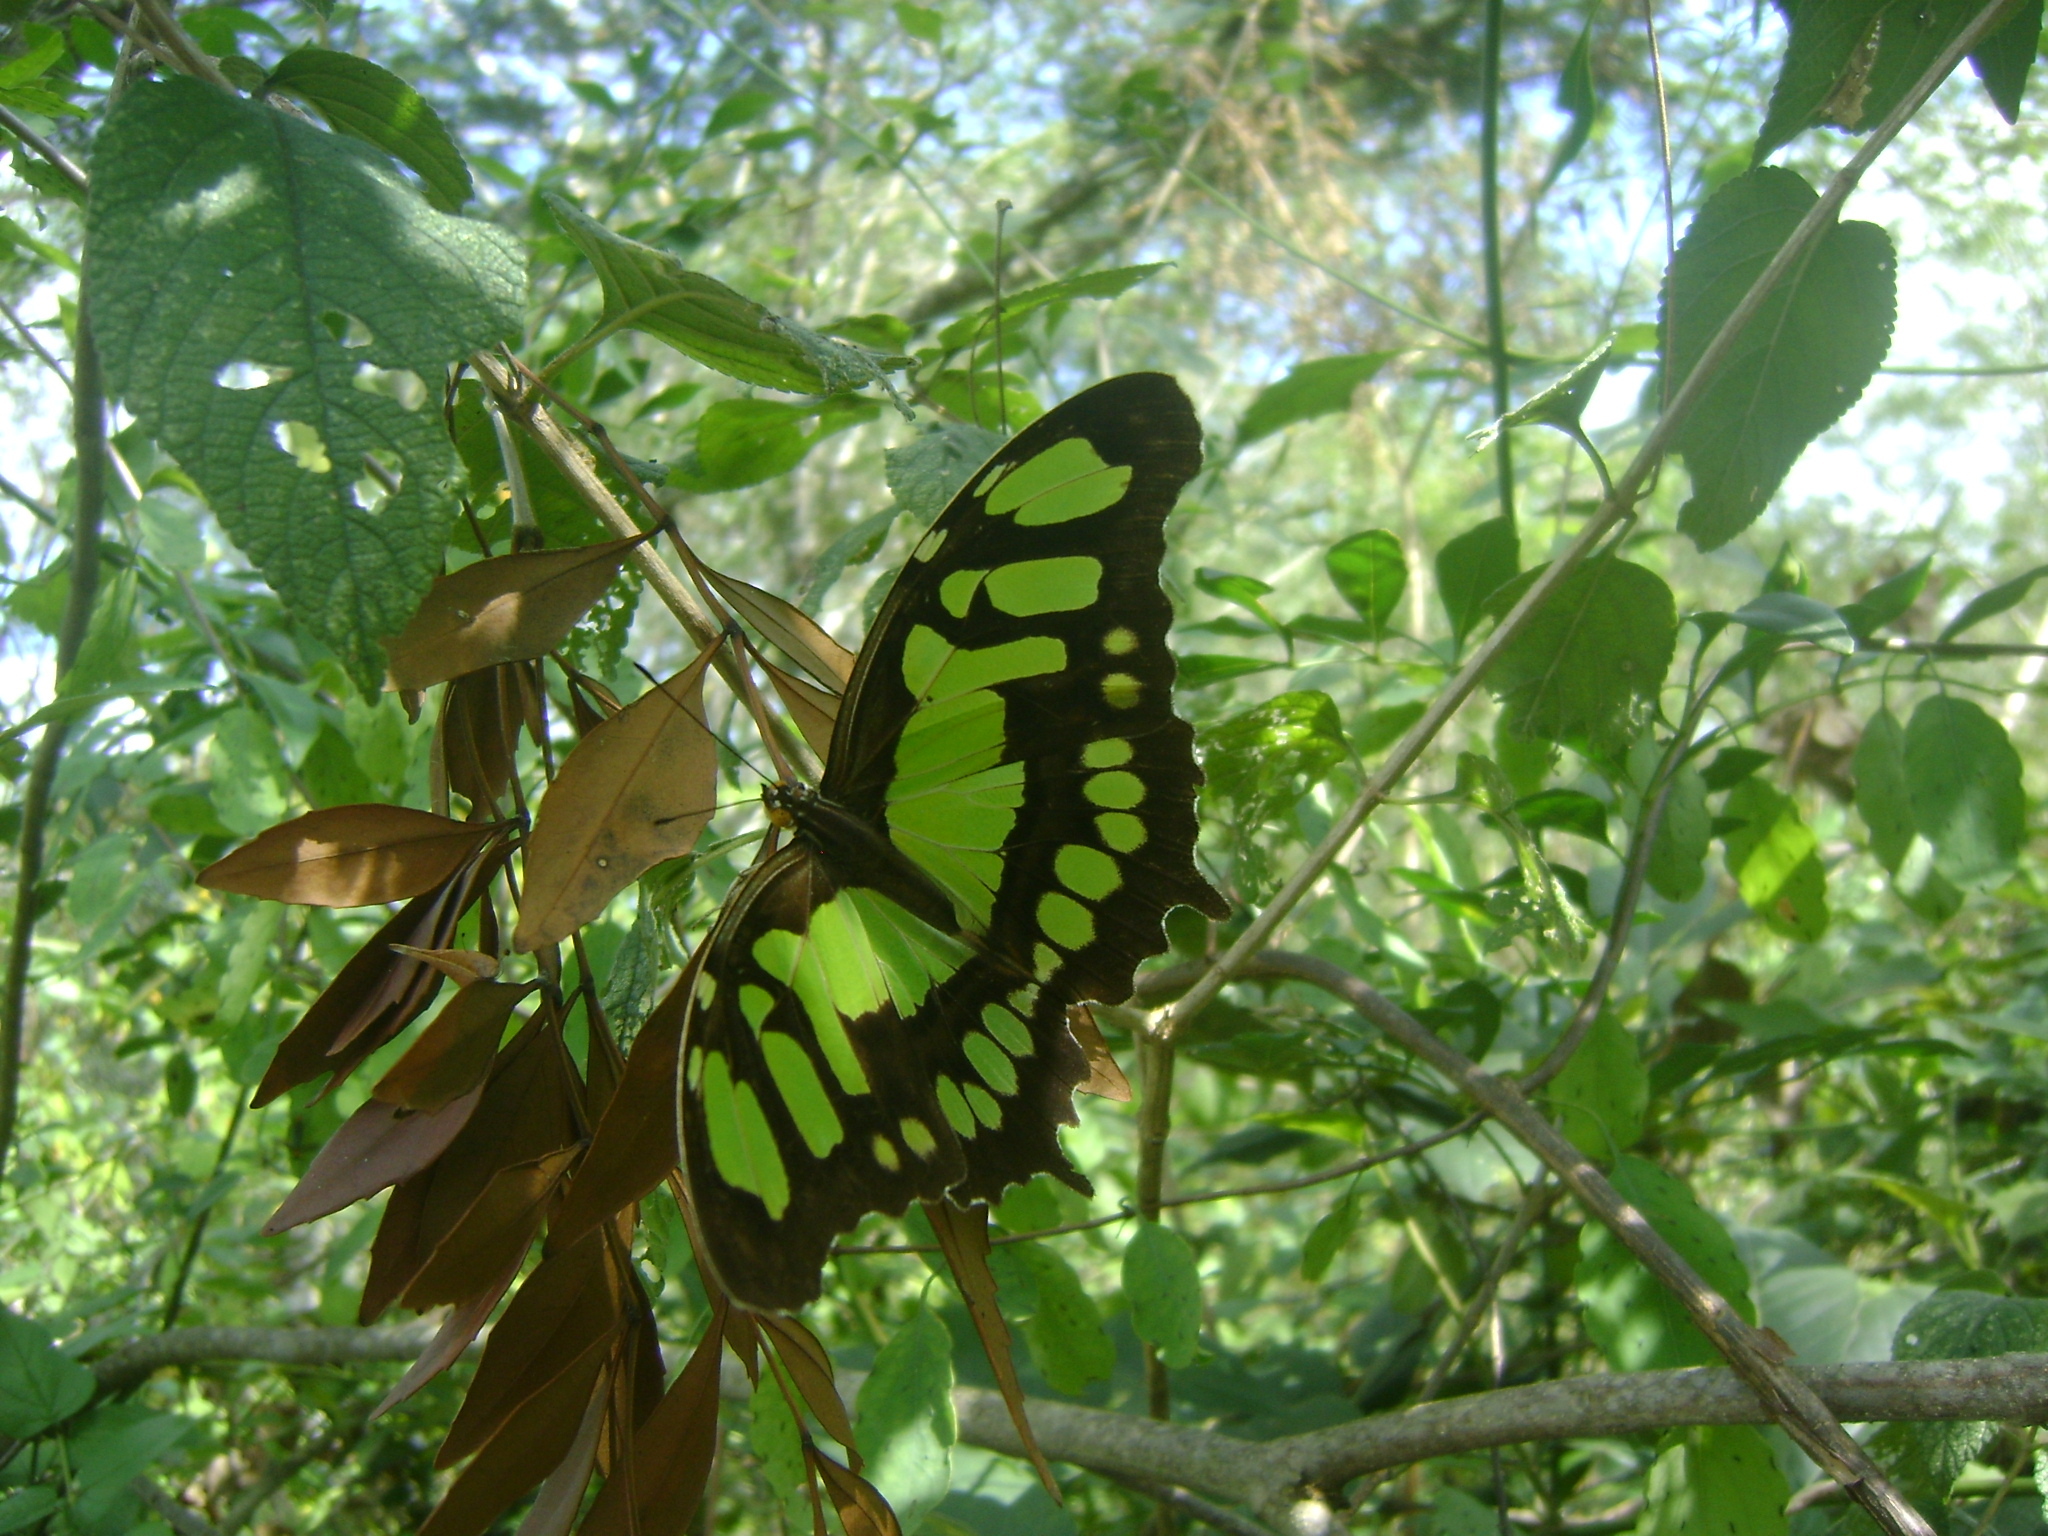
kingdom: Animalia
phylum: Arthropoda
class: Insecta
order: Lepidoptera
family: Nymphalidae
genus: Siproeta
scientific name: Siproeta stelenes
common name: Malachite
